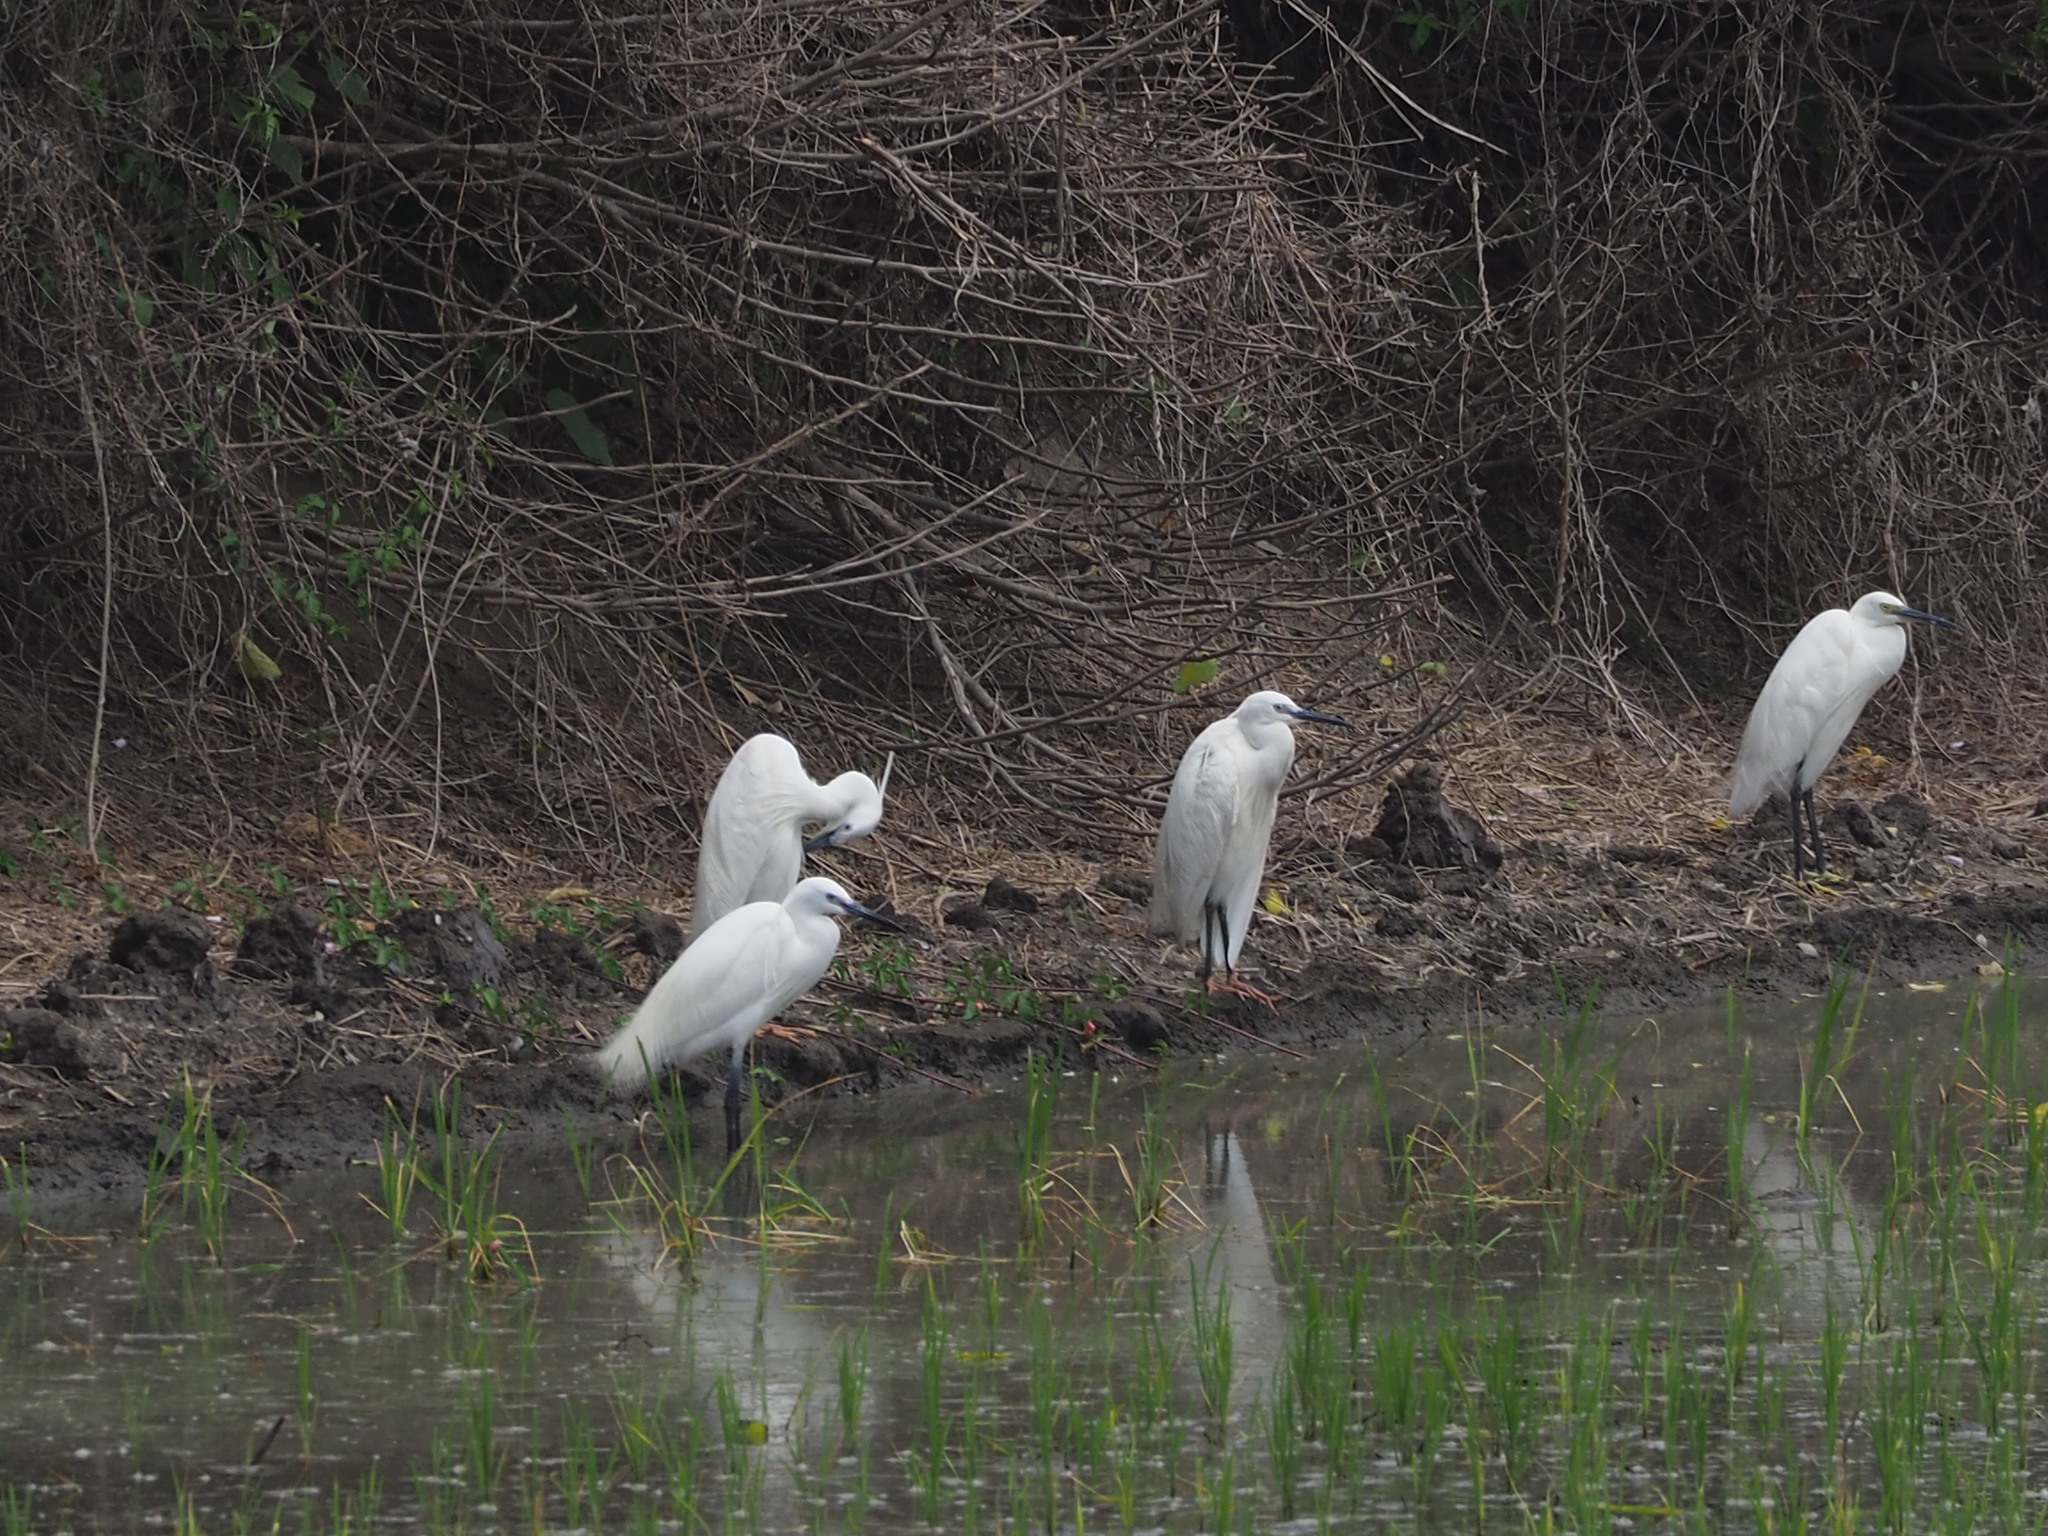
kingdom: Animalia
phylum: Chordata
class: Aves
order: Pelecaniformes
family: Ardeidae
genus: Egretta
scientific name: Egretta garzetta
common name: Little egret
